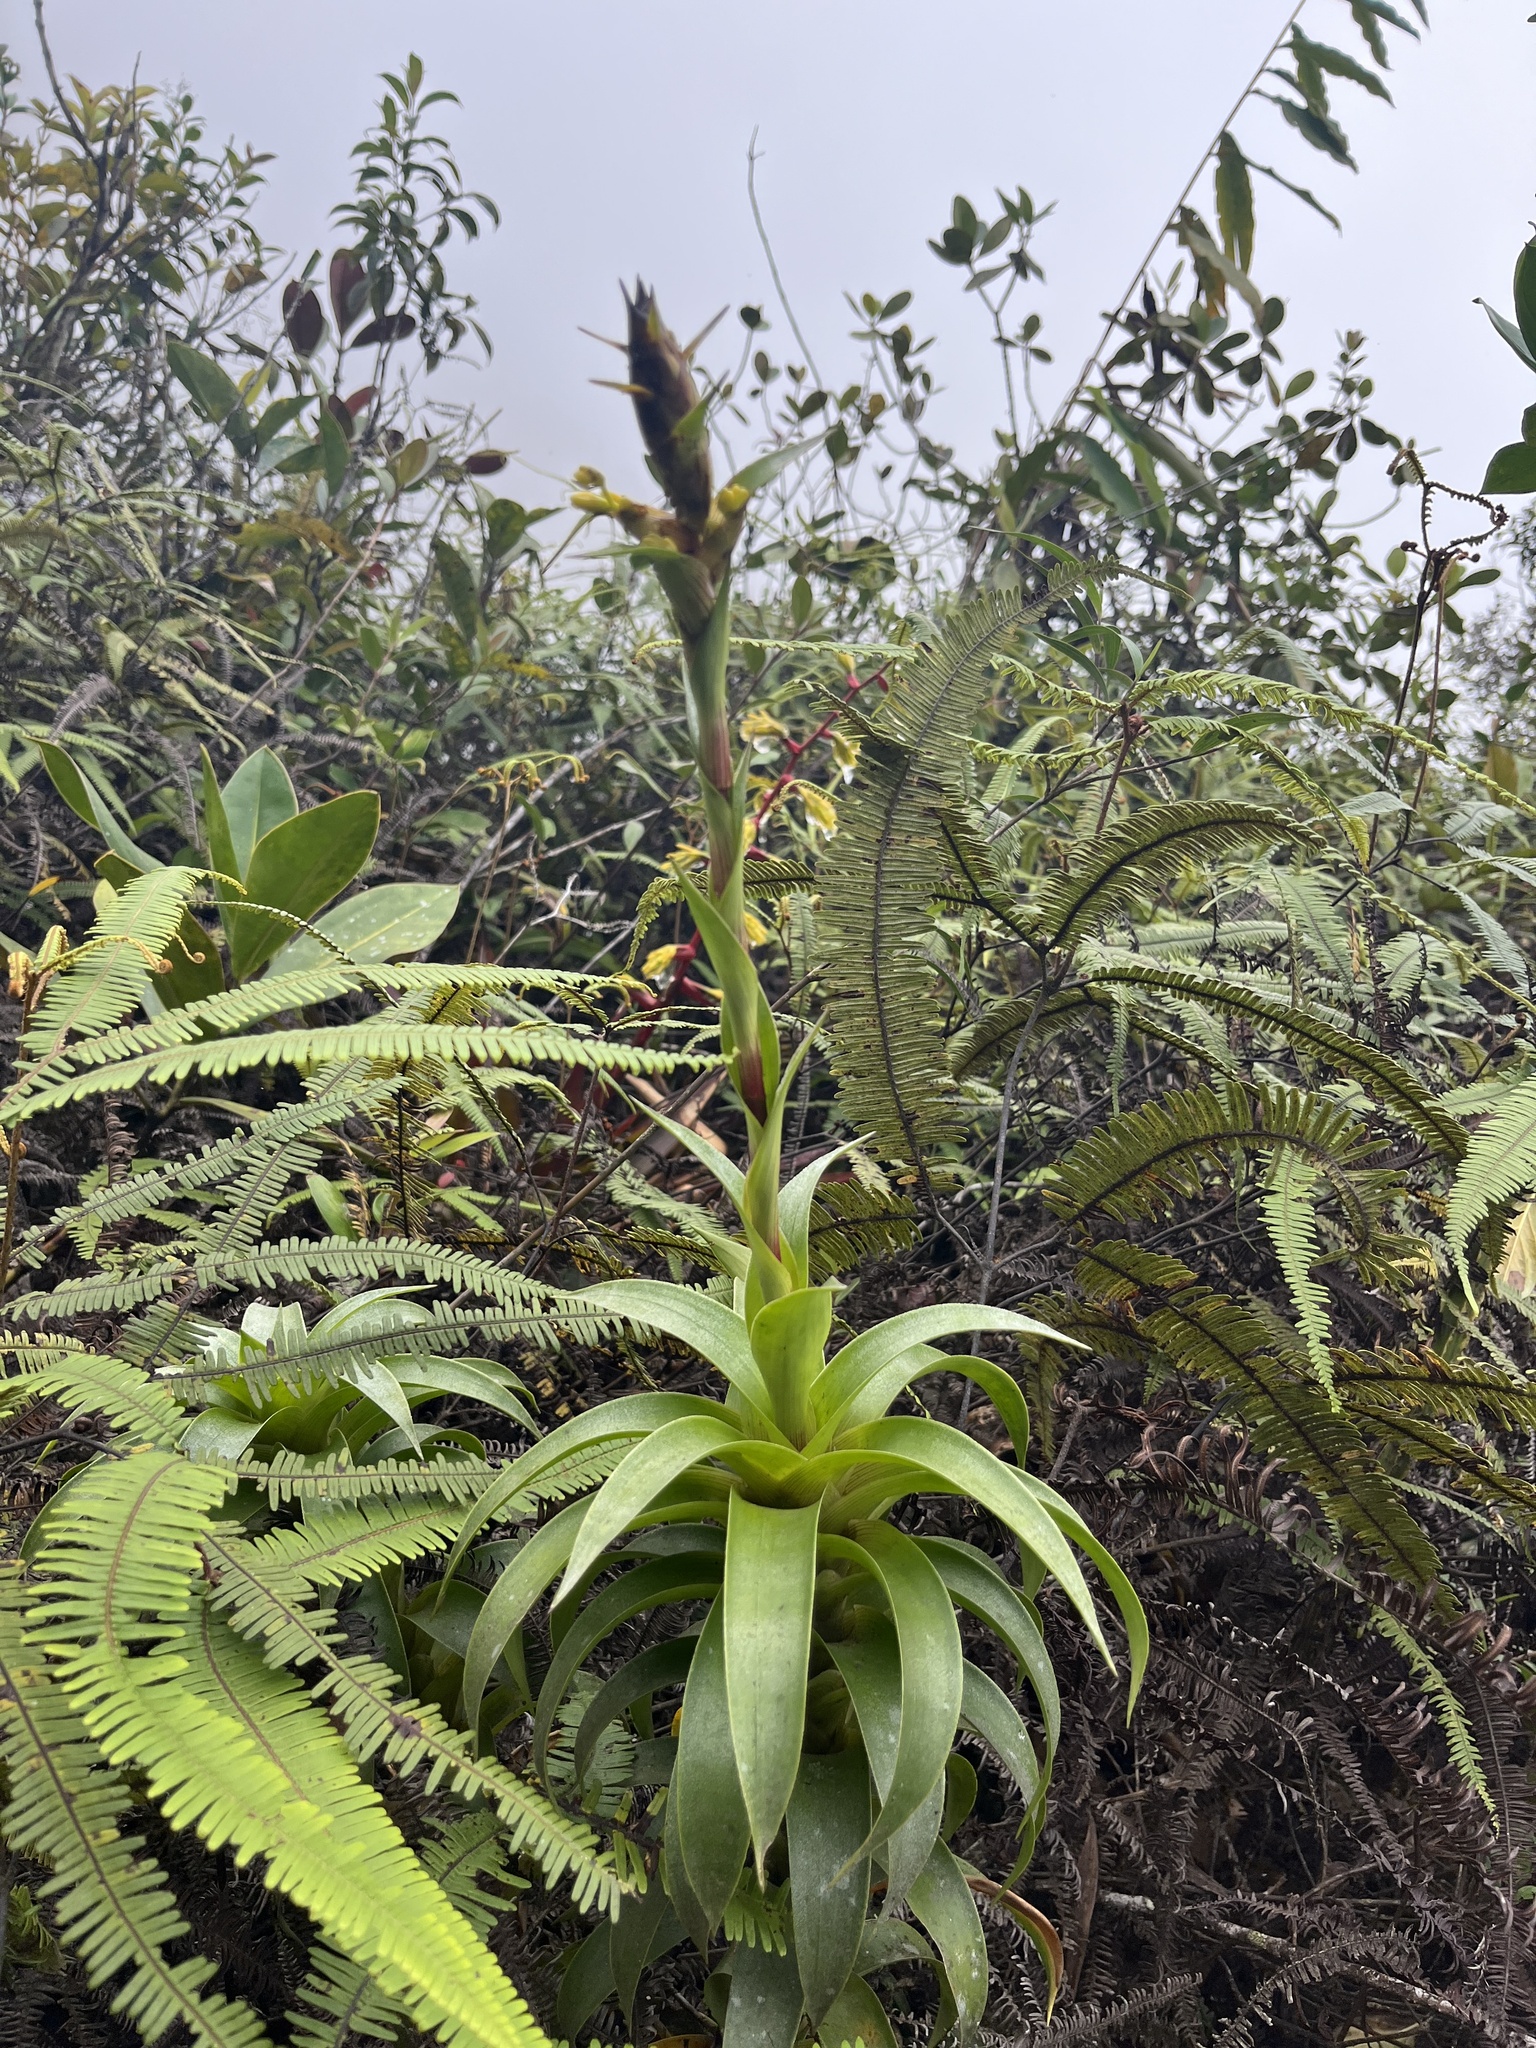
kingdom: Plantae
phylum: Tracheophyta
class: Liliopsida
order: Poales
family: Bromeliaceae
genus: Guzmania
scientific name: Guzmania gracilior
